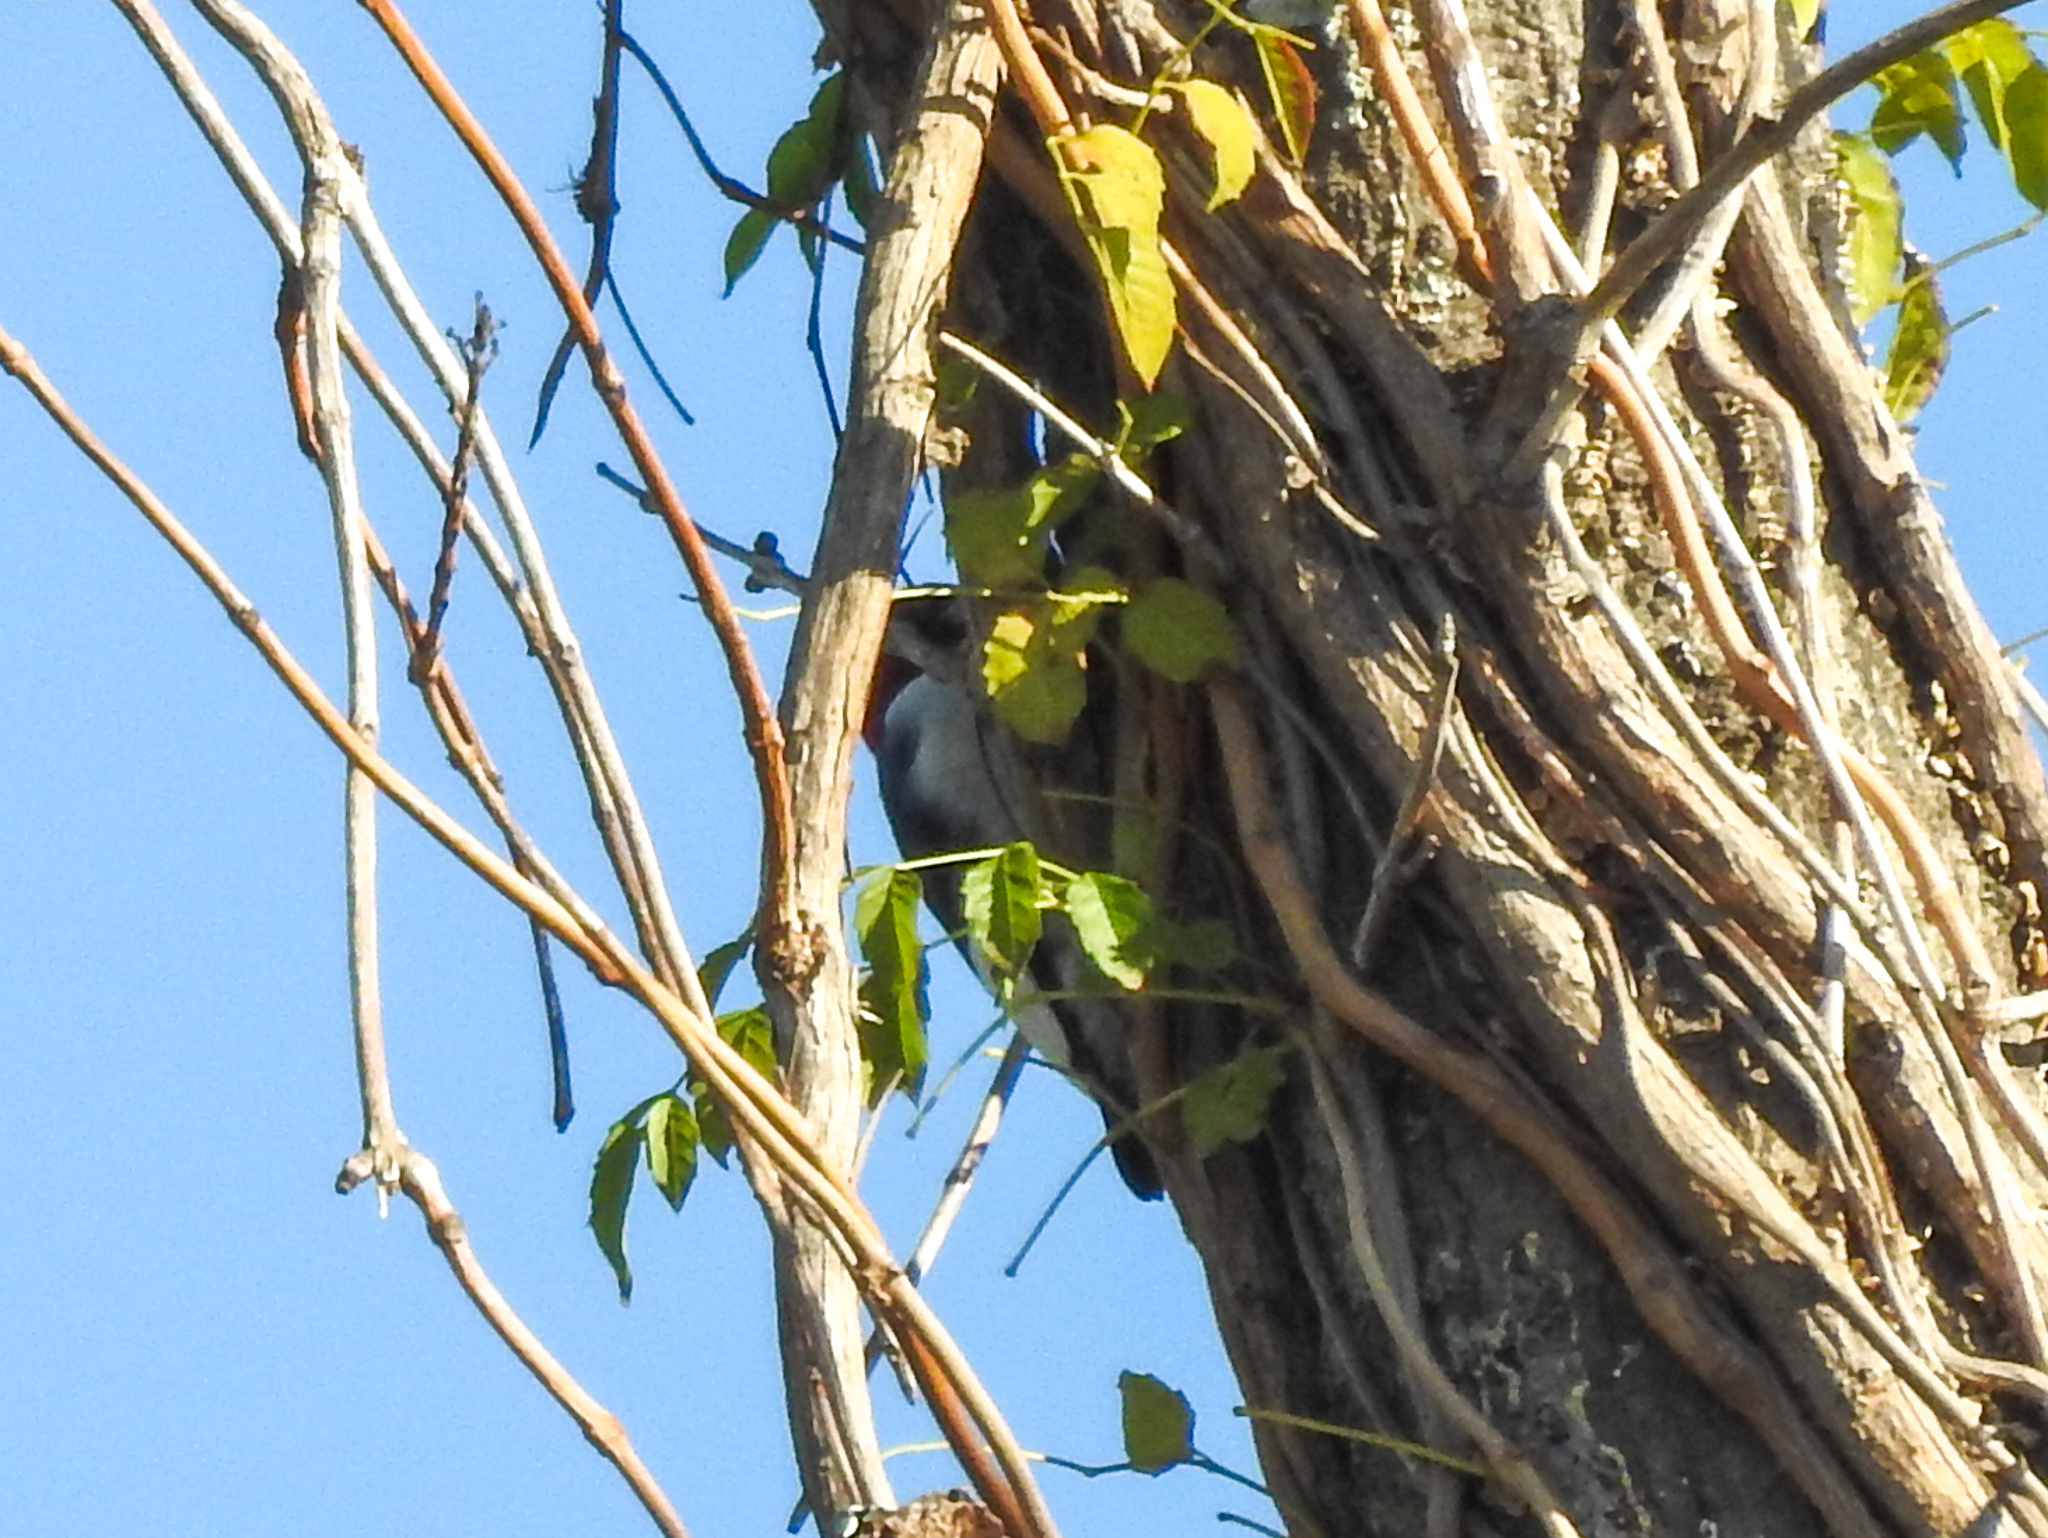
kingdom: Animalia
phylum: Chordata
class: Aves
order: Piciformes
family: Picidae
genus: Melanerpes
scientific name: Melanerpes erythrocephalus
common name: Red-headed woodpecker
